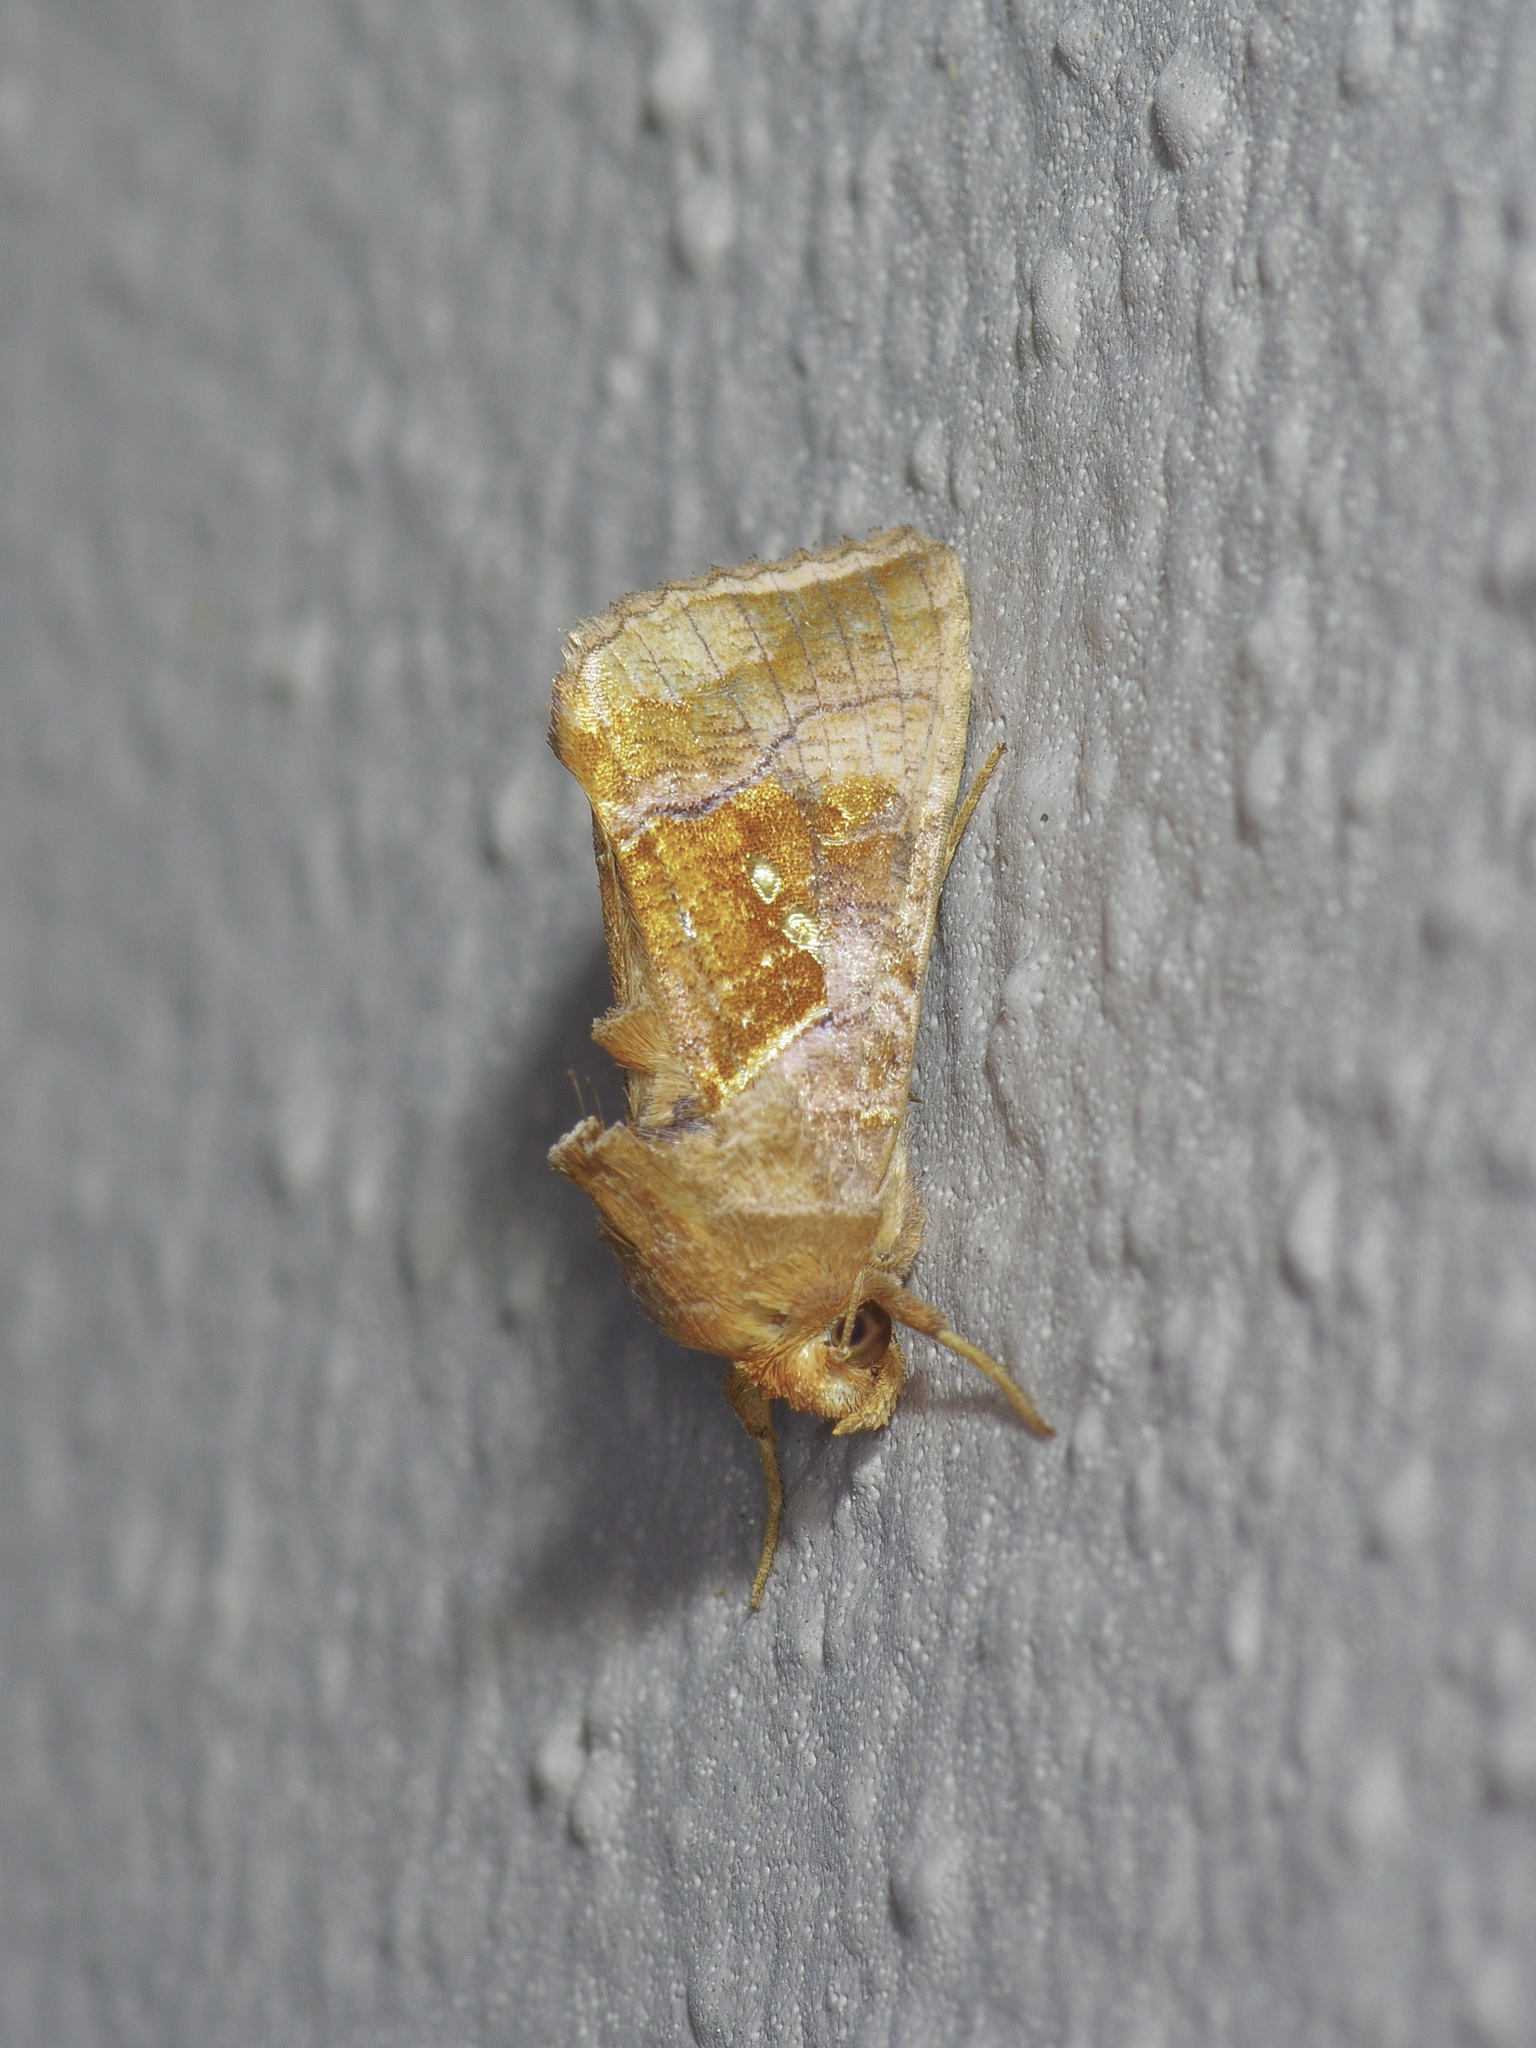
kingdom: Animalia
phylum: Arthropoda
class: Insecta
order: Lepidoptera
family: Noctuidae
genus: Enigmogramma
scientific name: Enigmogramma basigera
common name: Pink-washed looper moth
